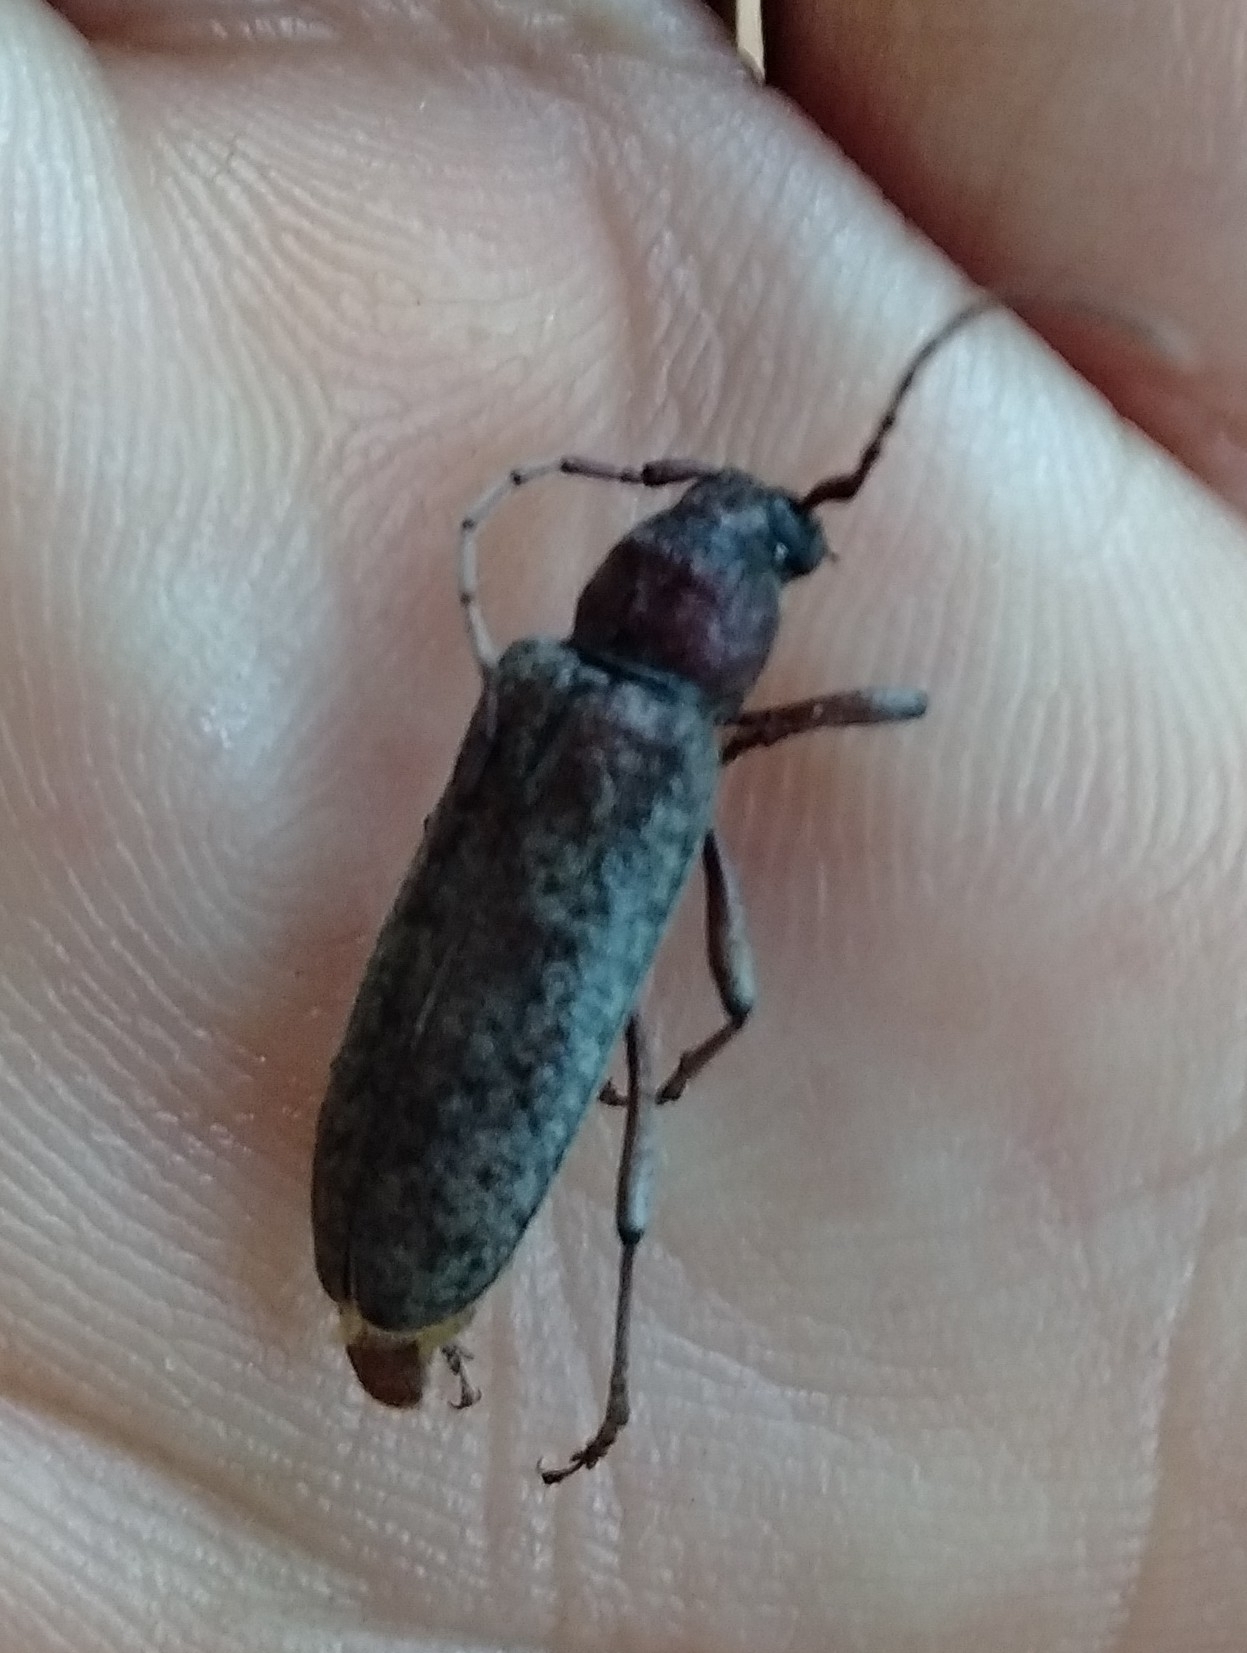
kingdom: Animalia
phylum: Arthropoda
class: Insecta
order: Coleoptera
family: Cerambycidae
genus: Trichoferus
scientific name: Trichoferus holosericeus
